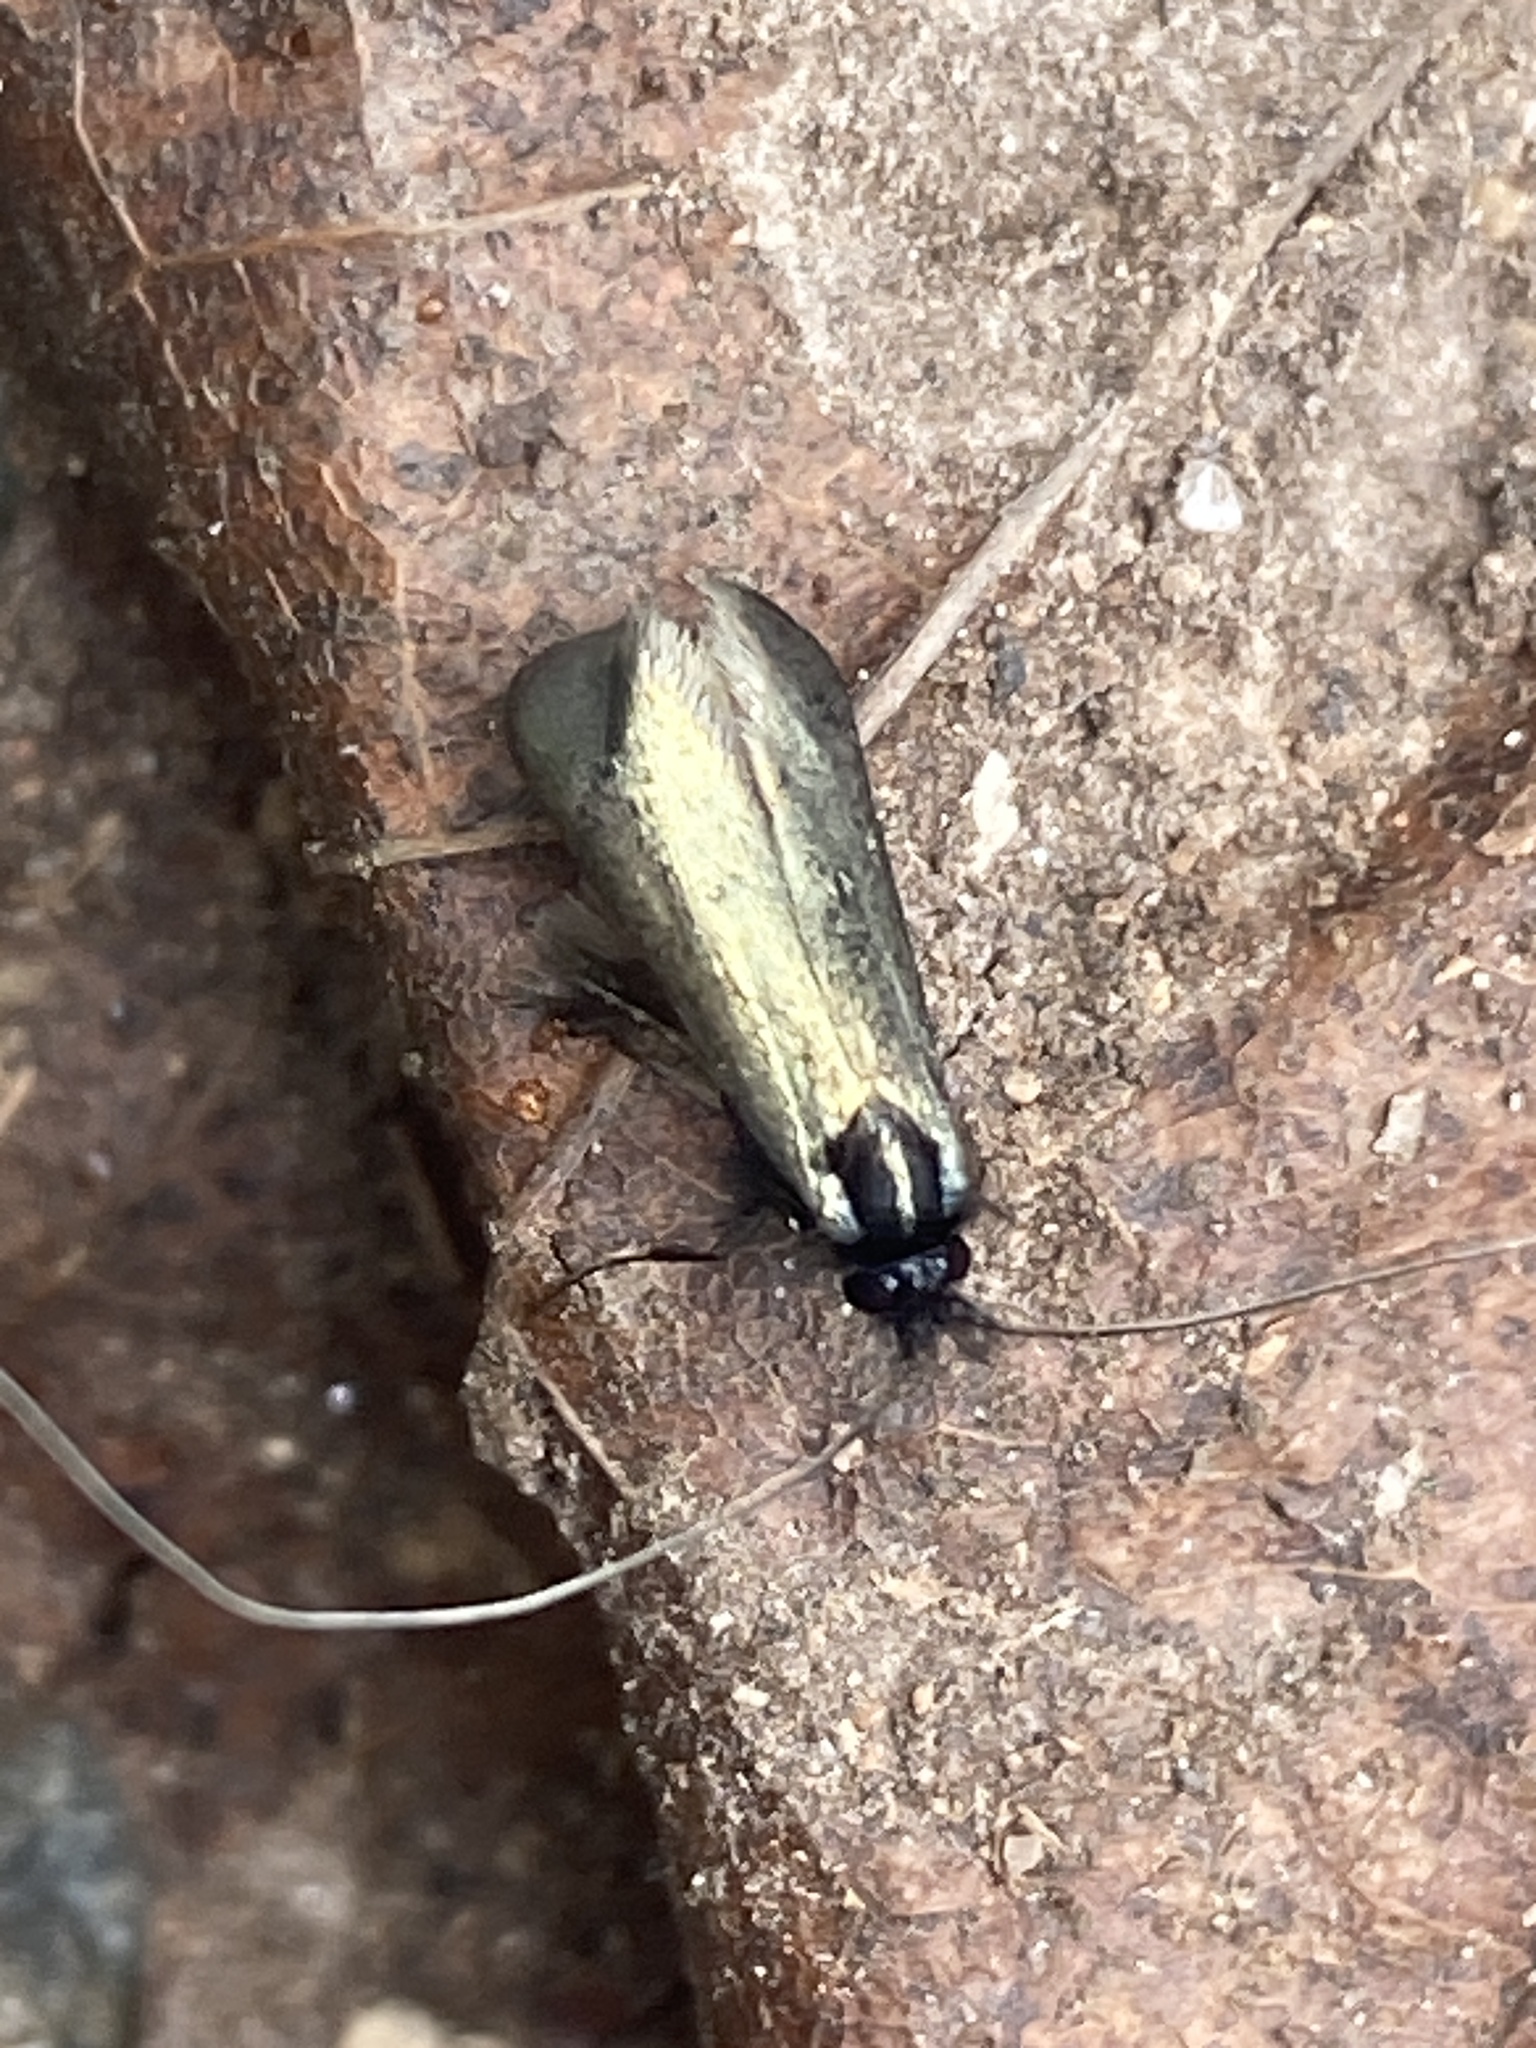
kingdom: Animalia
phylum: Arthropoda
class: Insecta
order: Lepidoptera
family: Adelidae
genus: Adela
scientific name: Adela viridella
